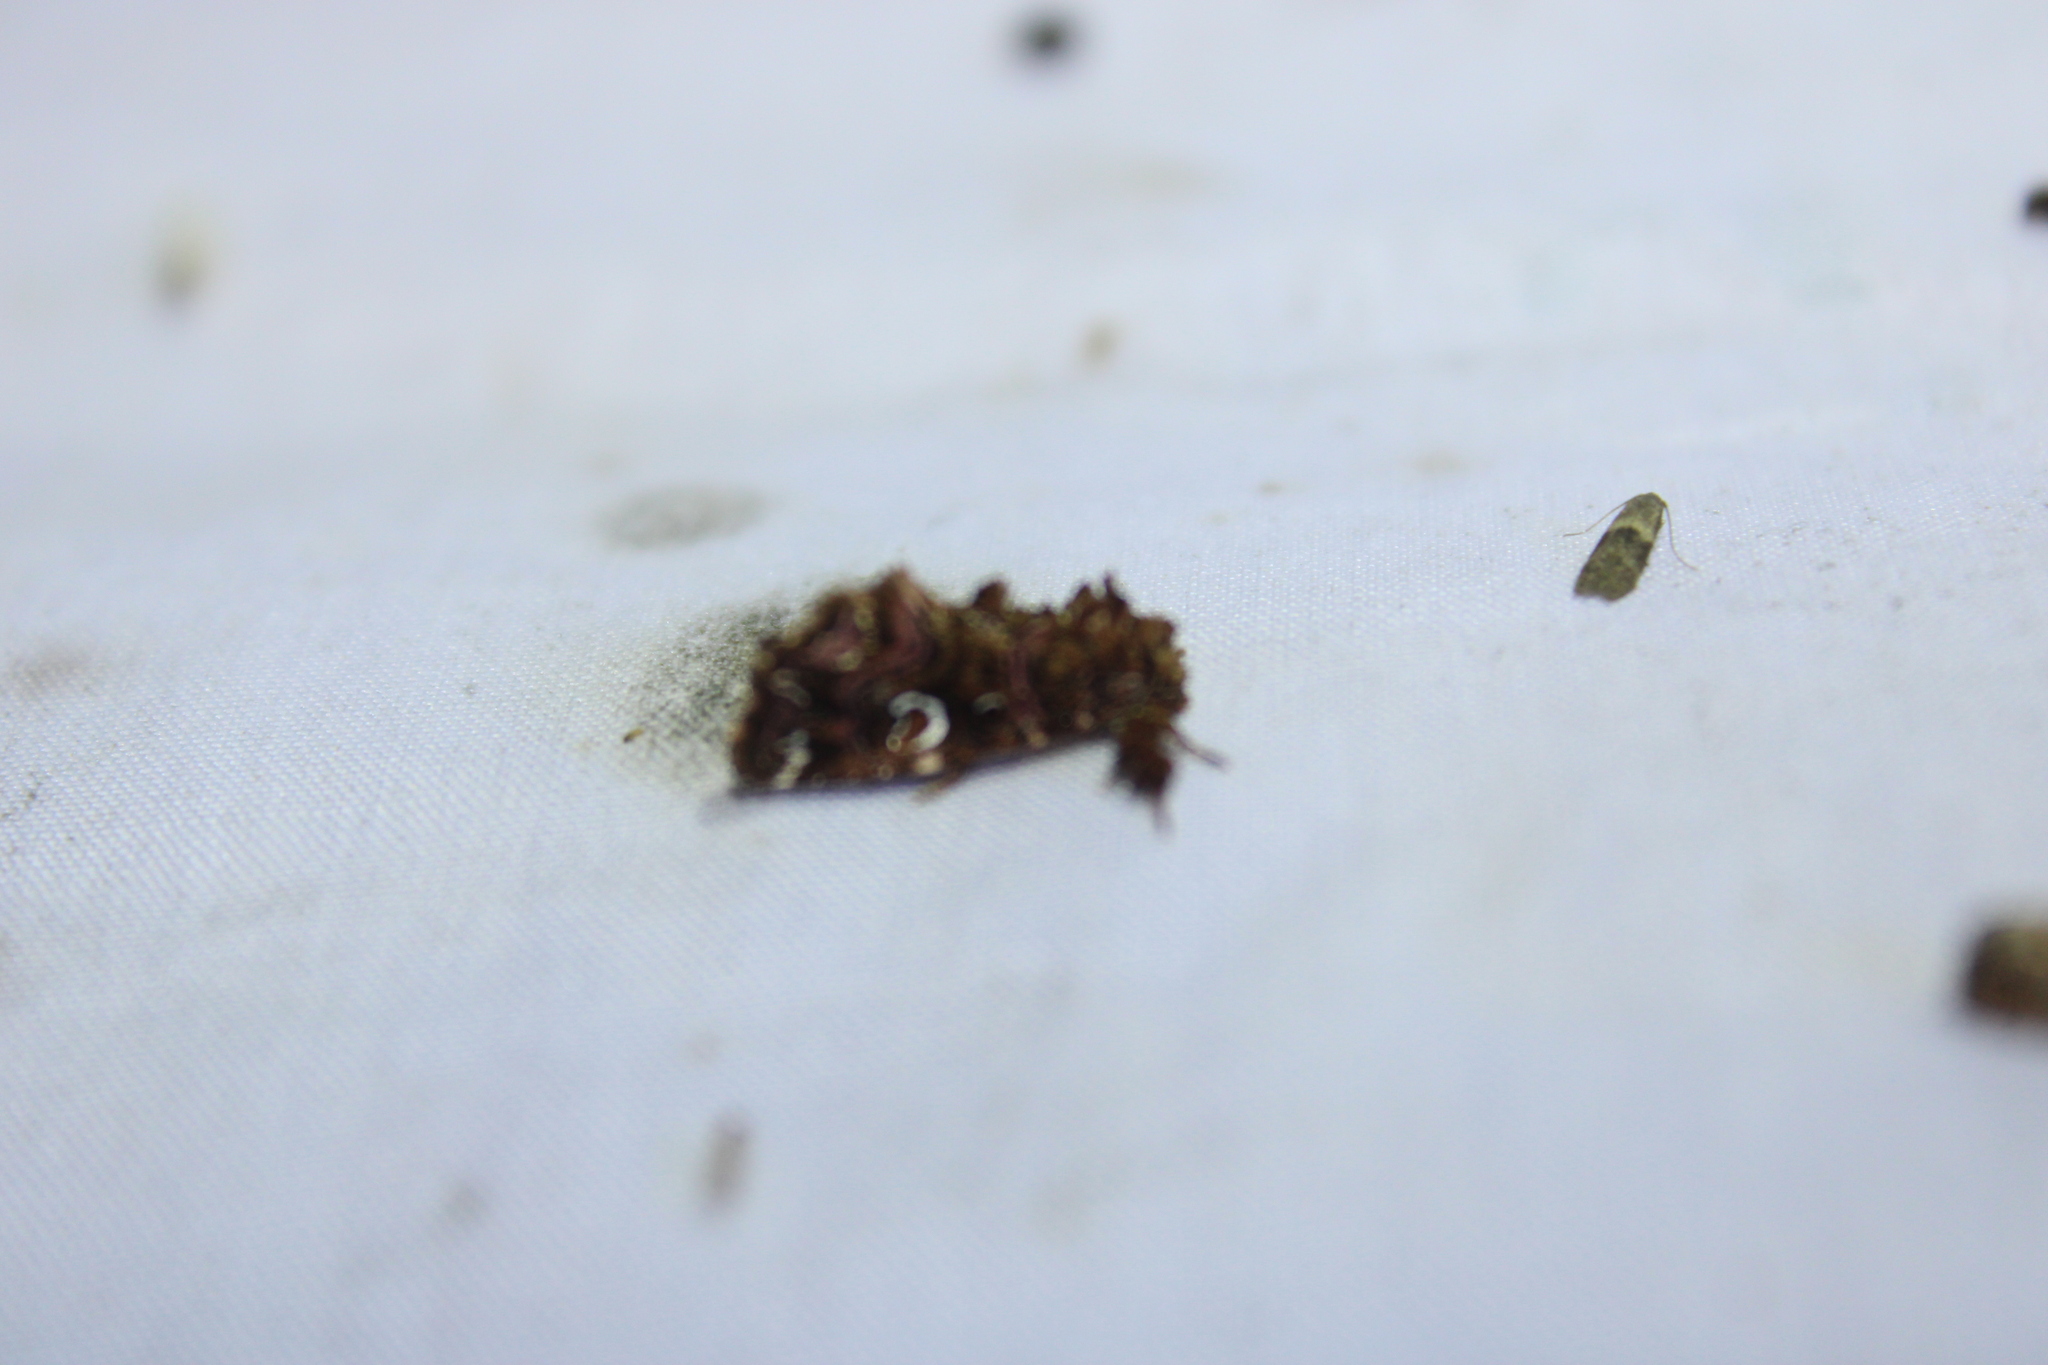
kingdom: Animalia
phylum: Arthropoda
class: Insecta
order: Lepidoptera
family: Noctuidae
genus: Callopistria
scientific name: Callopistria mollissima
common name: Pink-shaded fern moth
